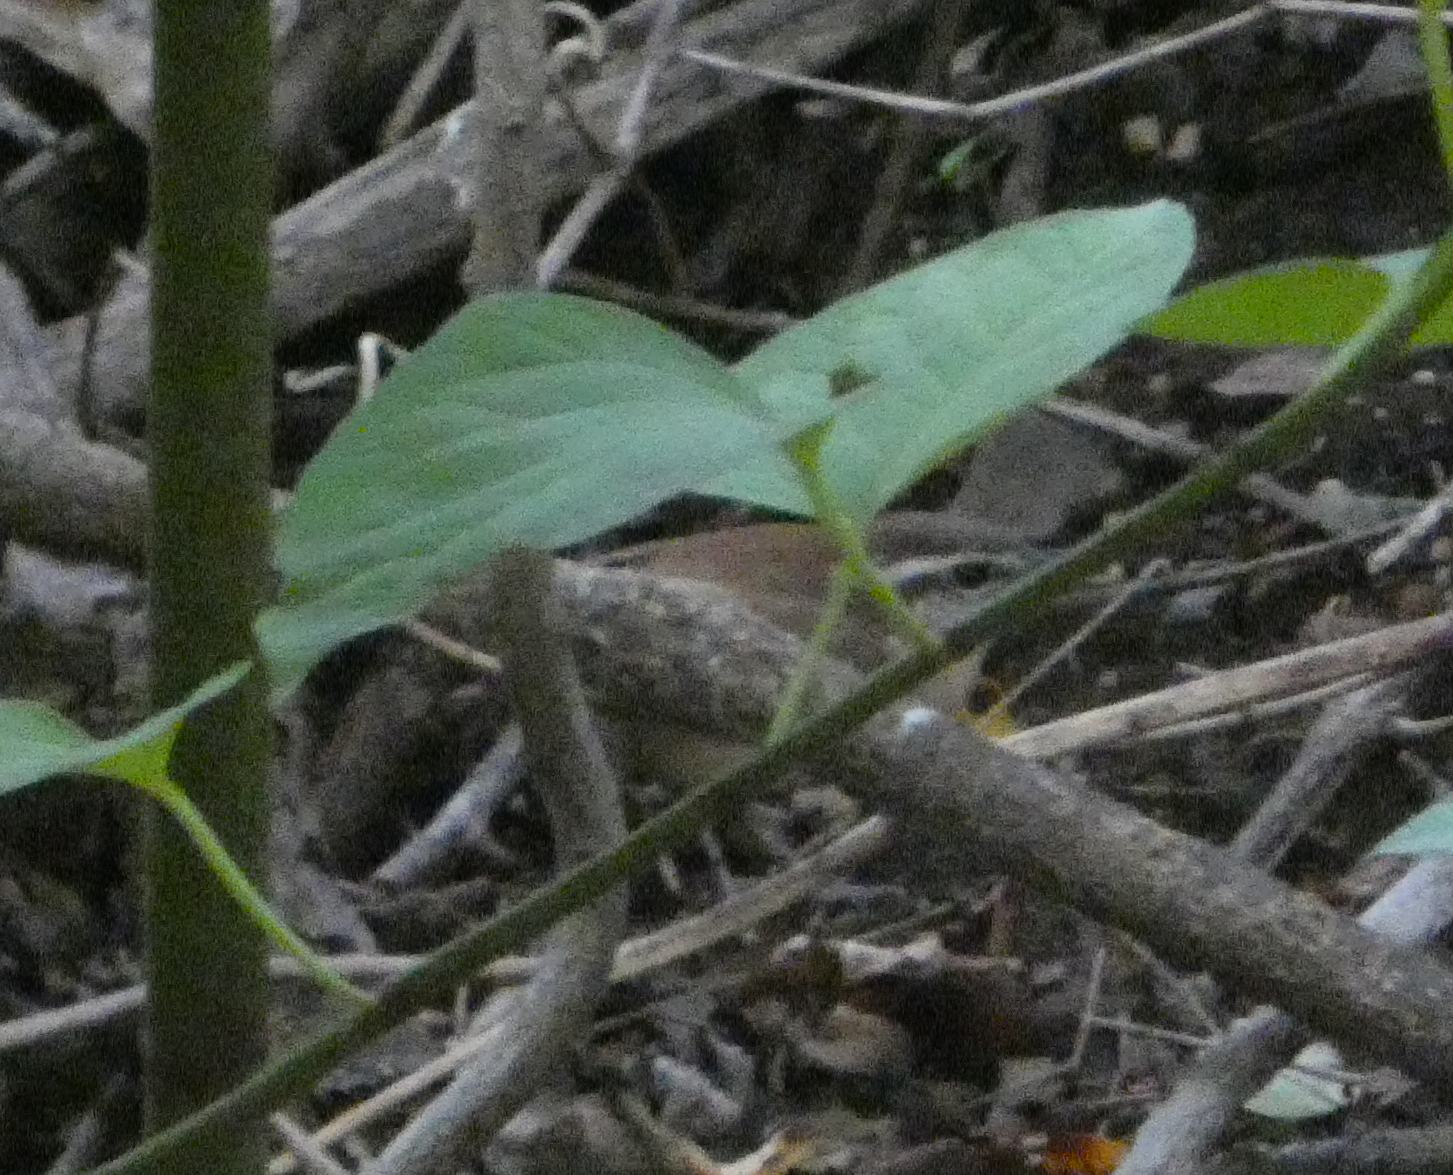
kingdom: Animalia
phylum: Chordata
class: Aves
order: Passeriformes
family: Troglodytidae
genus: Thryothorus
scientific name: Thryothorus ludovicianus
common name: Carolina wren
